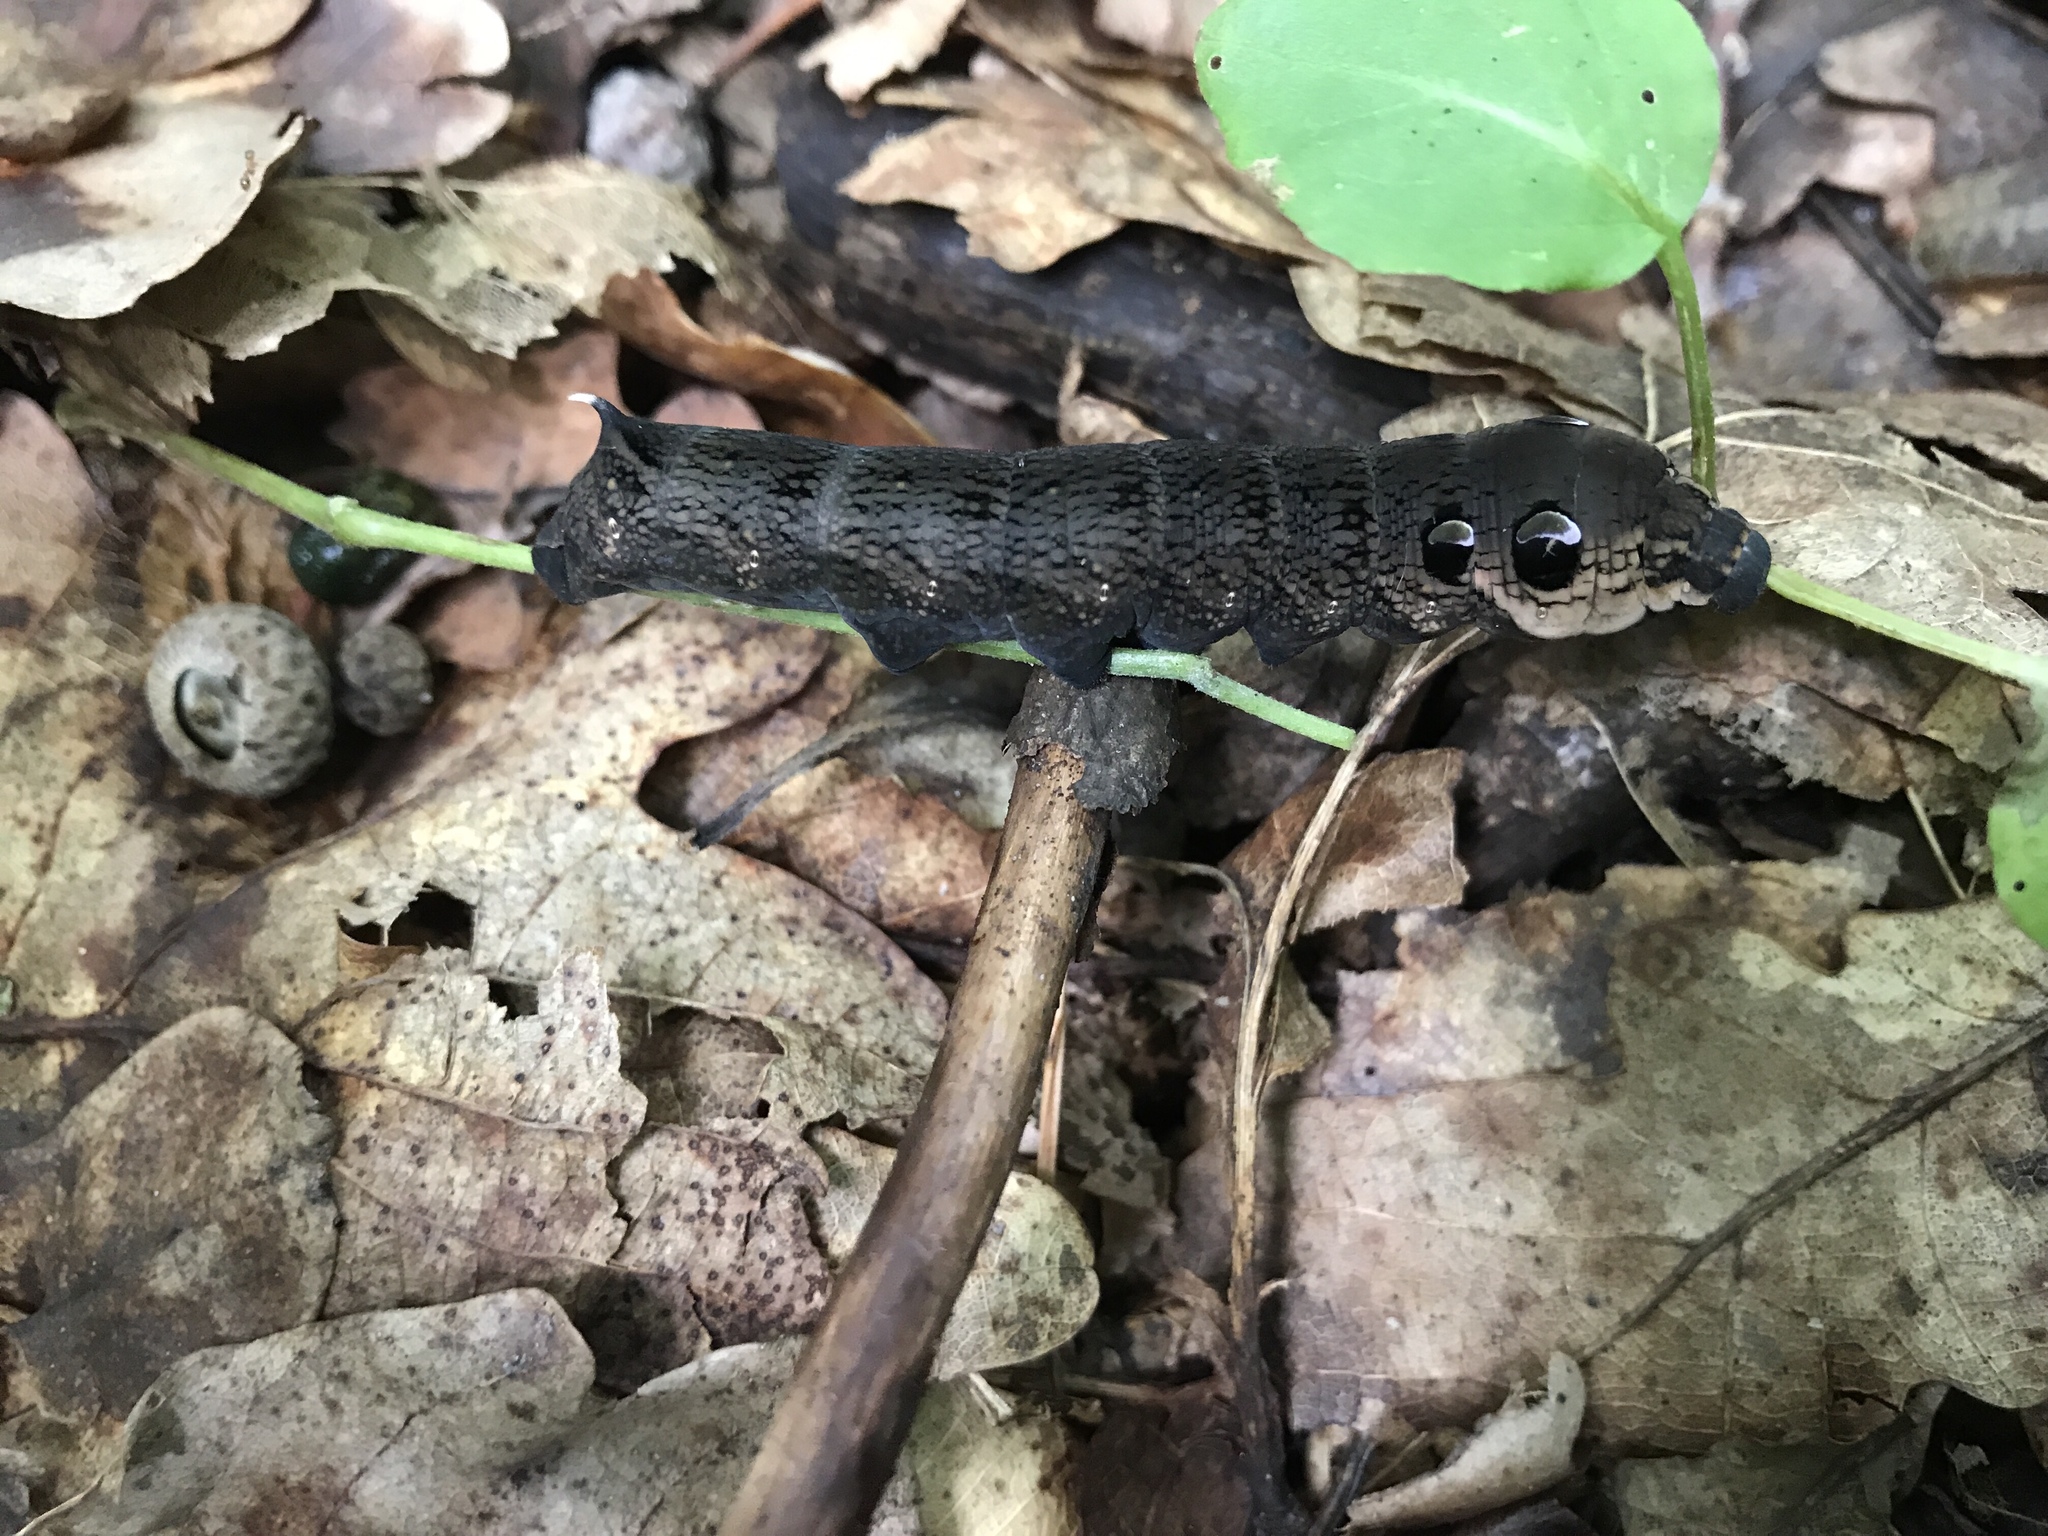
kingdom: Animalia
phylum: Arthropoda
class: Insecta
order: Lepidoptera
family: Sphingidae
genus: Deilephila
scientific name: Deilephila elpenor
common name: Elephant hawk-moth
